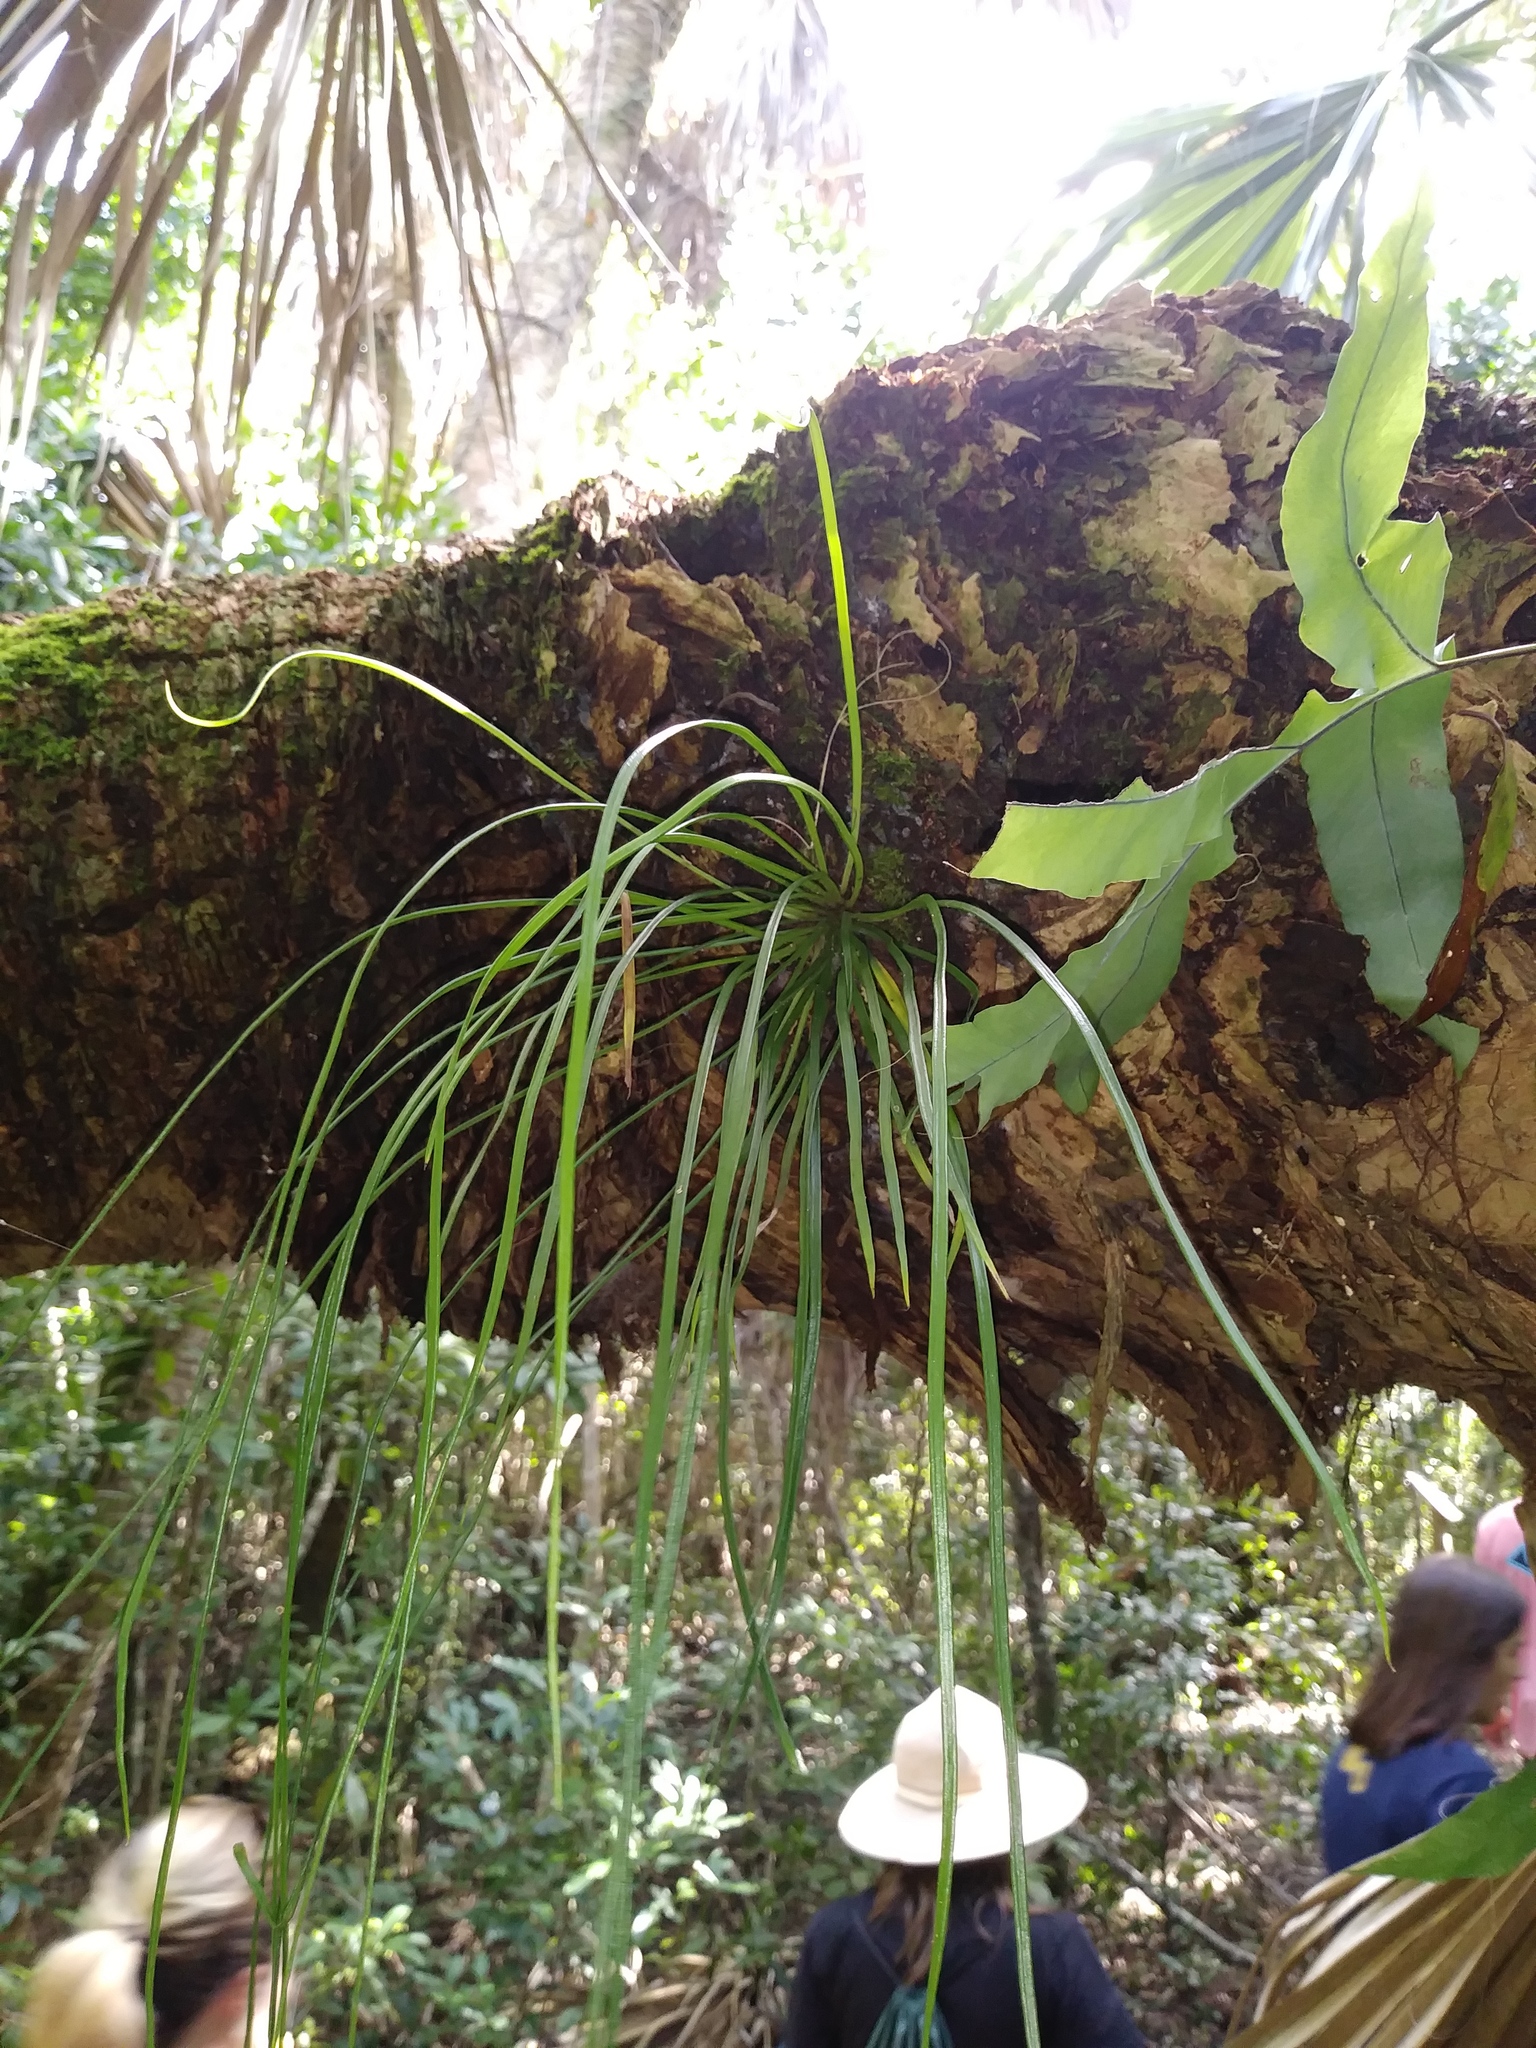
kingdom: Plantae
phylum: Tracheophyta
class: Polypodiopsida
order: Polypodiales
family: Pteridaceae
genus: Vittaria
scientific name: Vittaria lineata
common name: Shoestring fern
